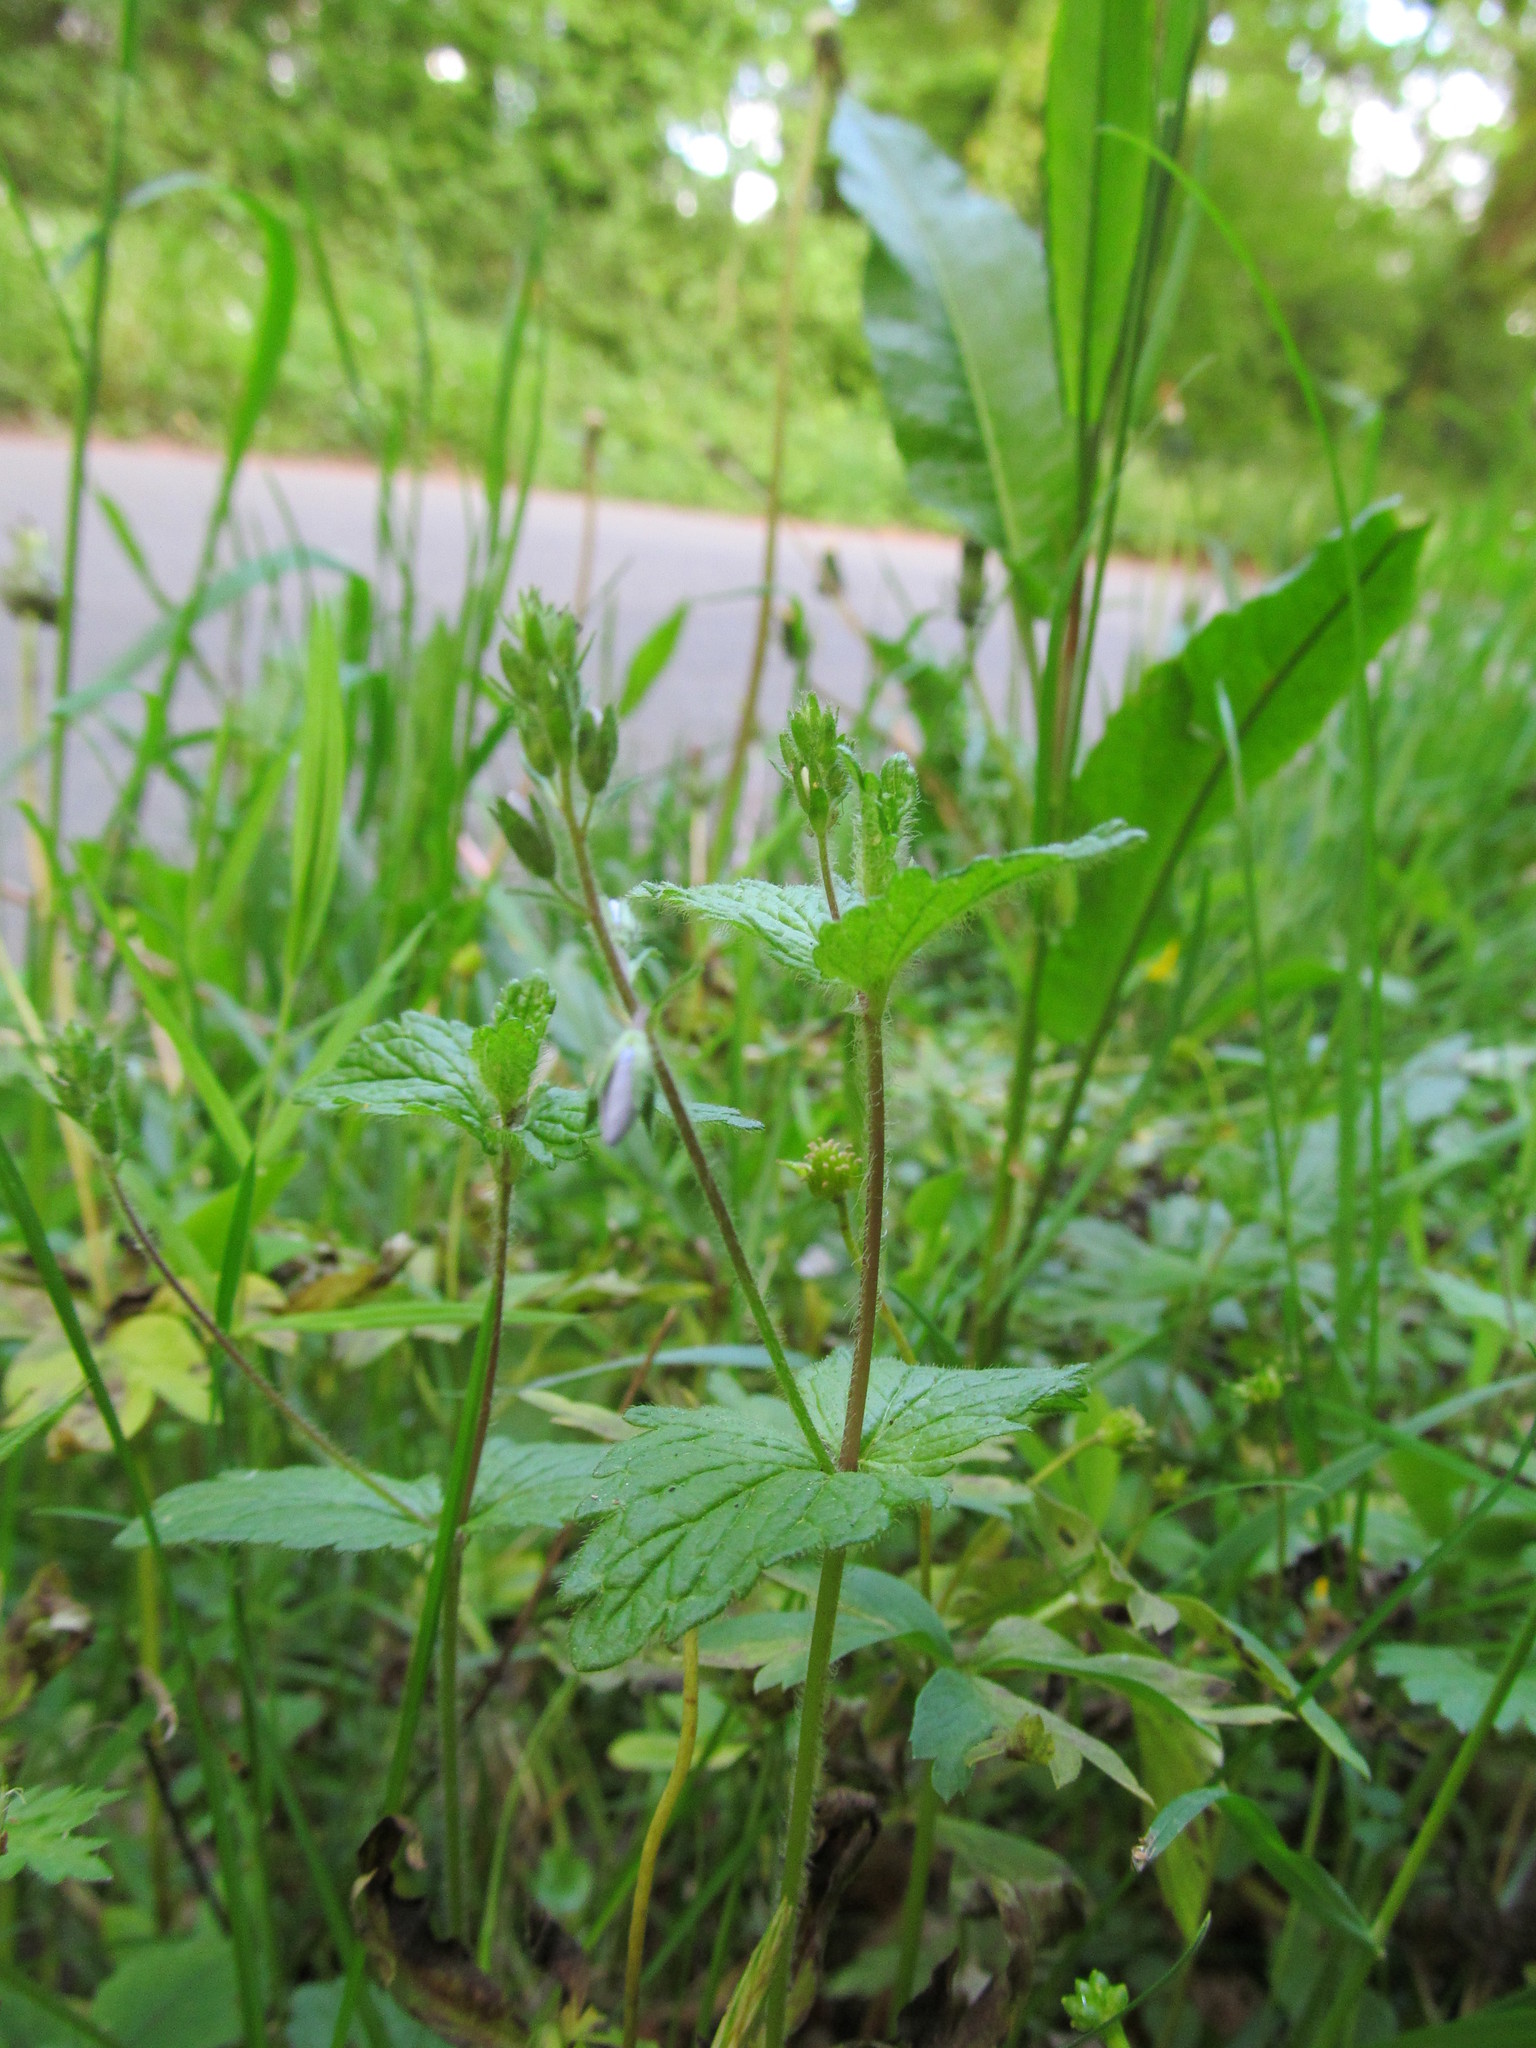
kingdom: Plantae
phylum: Tracheophyta
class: Magnoliopsida
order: Lamiales
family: Plantaginaceae
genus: Veronica
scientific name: Veronica chamaedrys
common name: Germander speedwell
